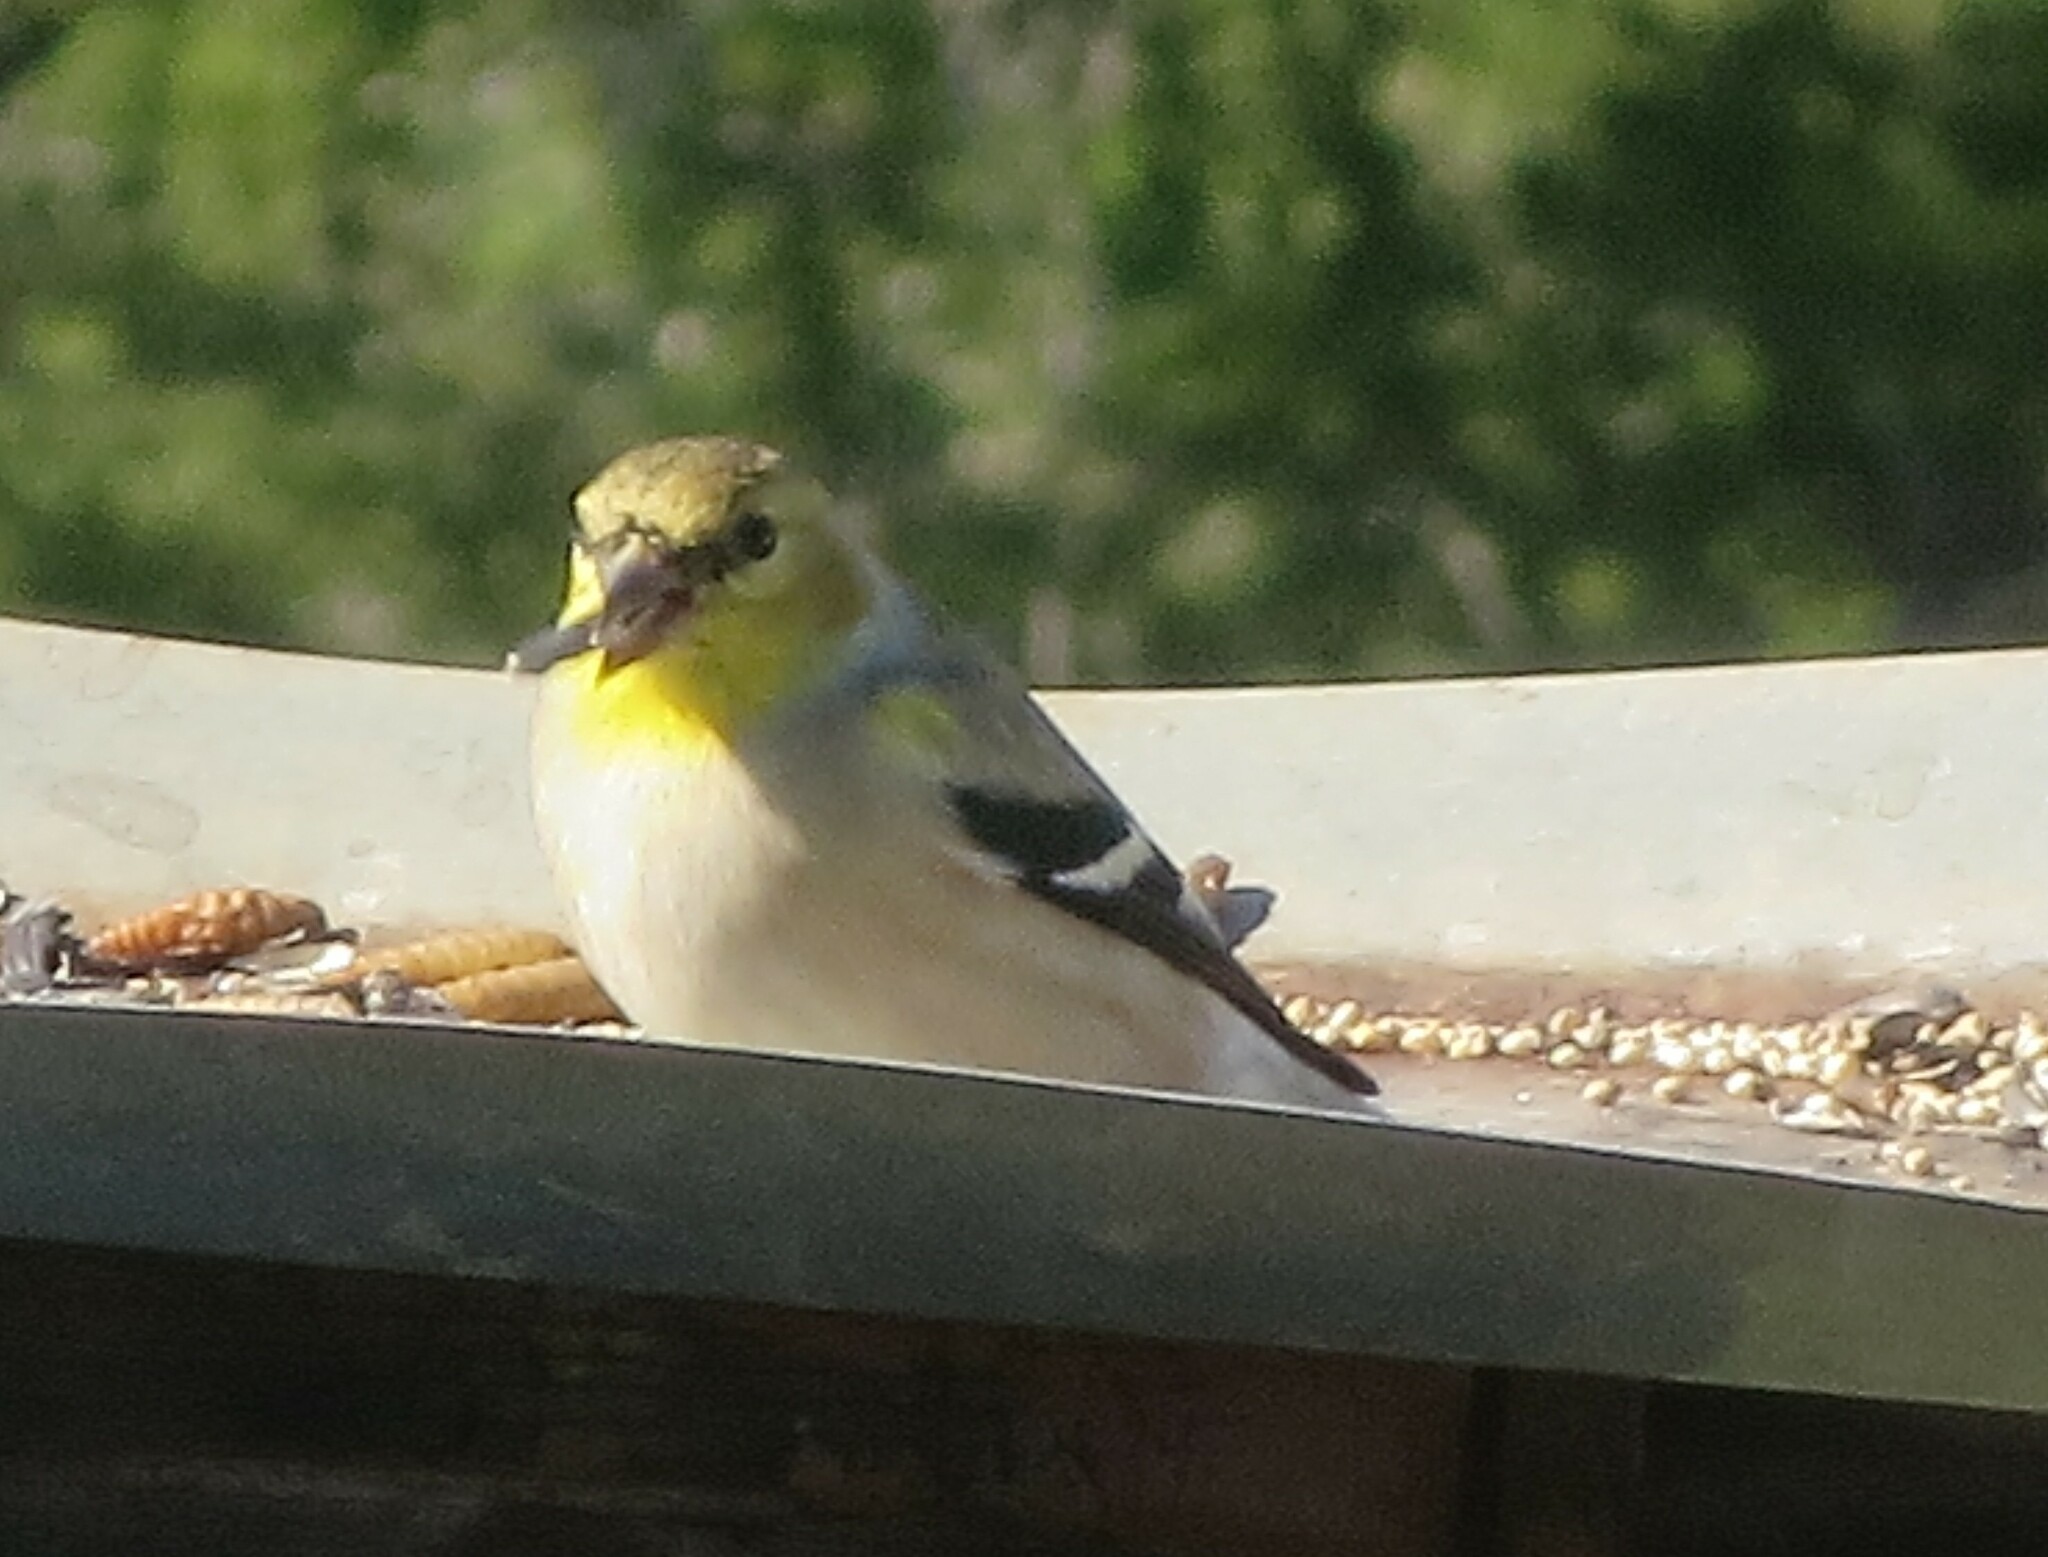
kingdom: Animalia
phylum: Chordata
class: Aves
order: Passeriformes
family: Fringillidae
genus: Spinus
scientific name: Spinus tristis
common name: American goldfinch
